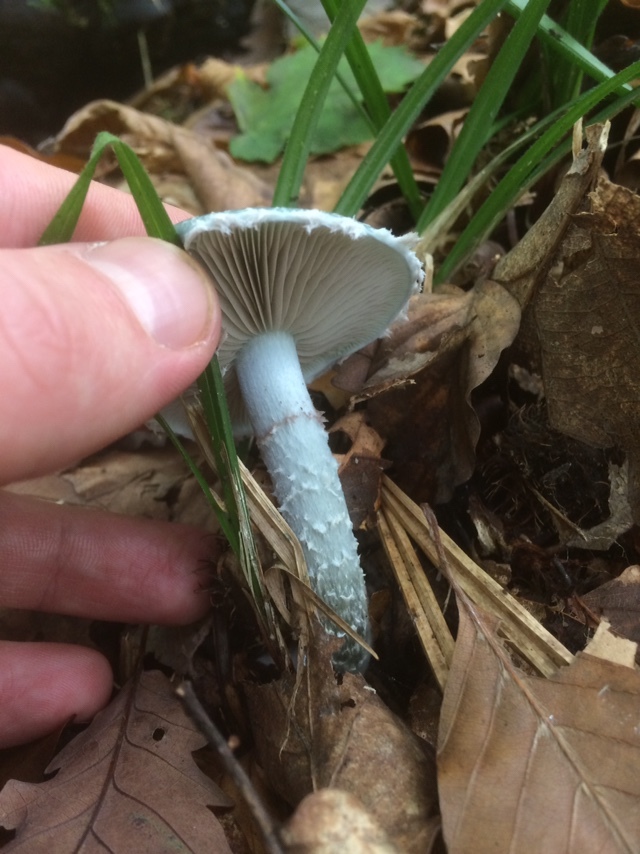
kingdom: Fungi
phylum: Basidiomycota
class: Agaricomycetes
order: Agaricales
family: Strophariaceae
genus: Stropharia
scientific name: Stropharia caerulea
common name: Blue roundhead
